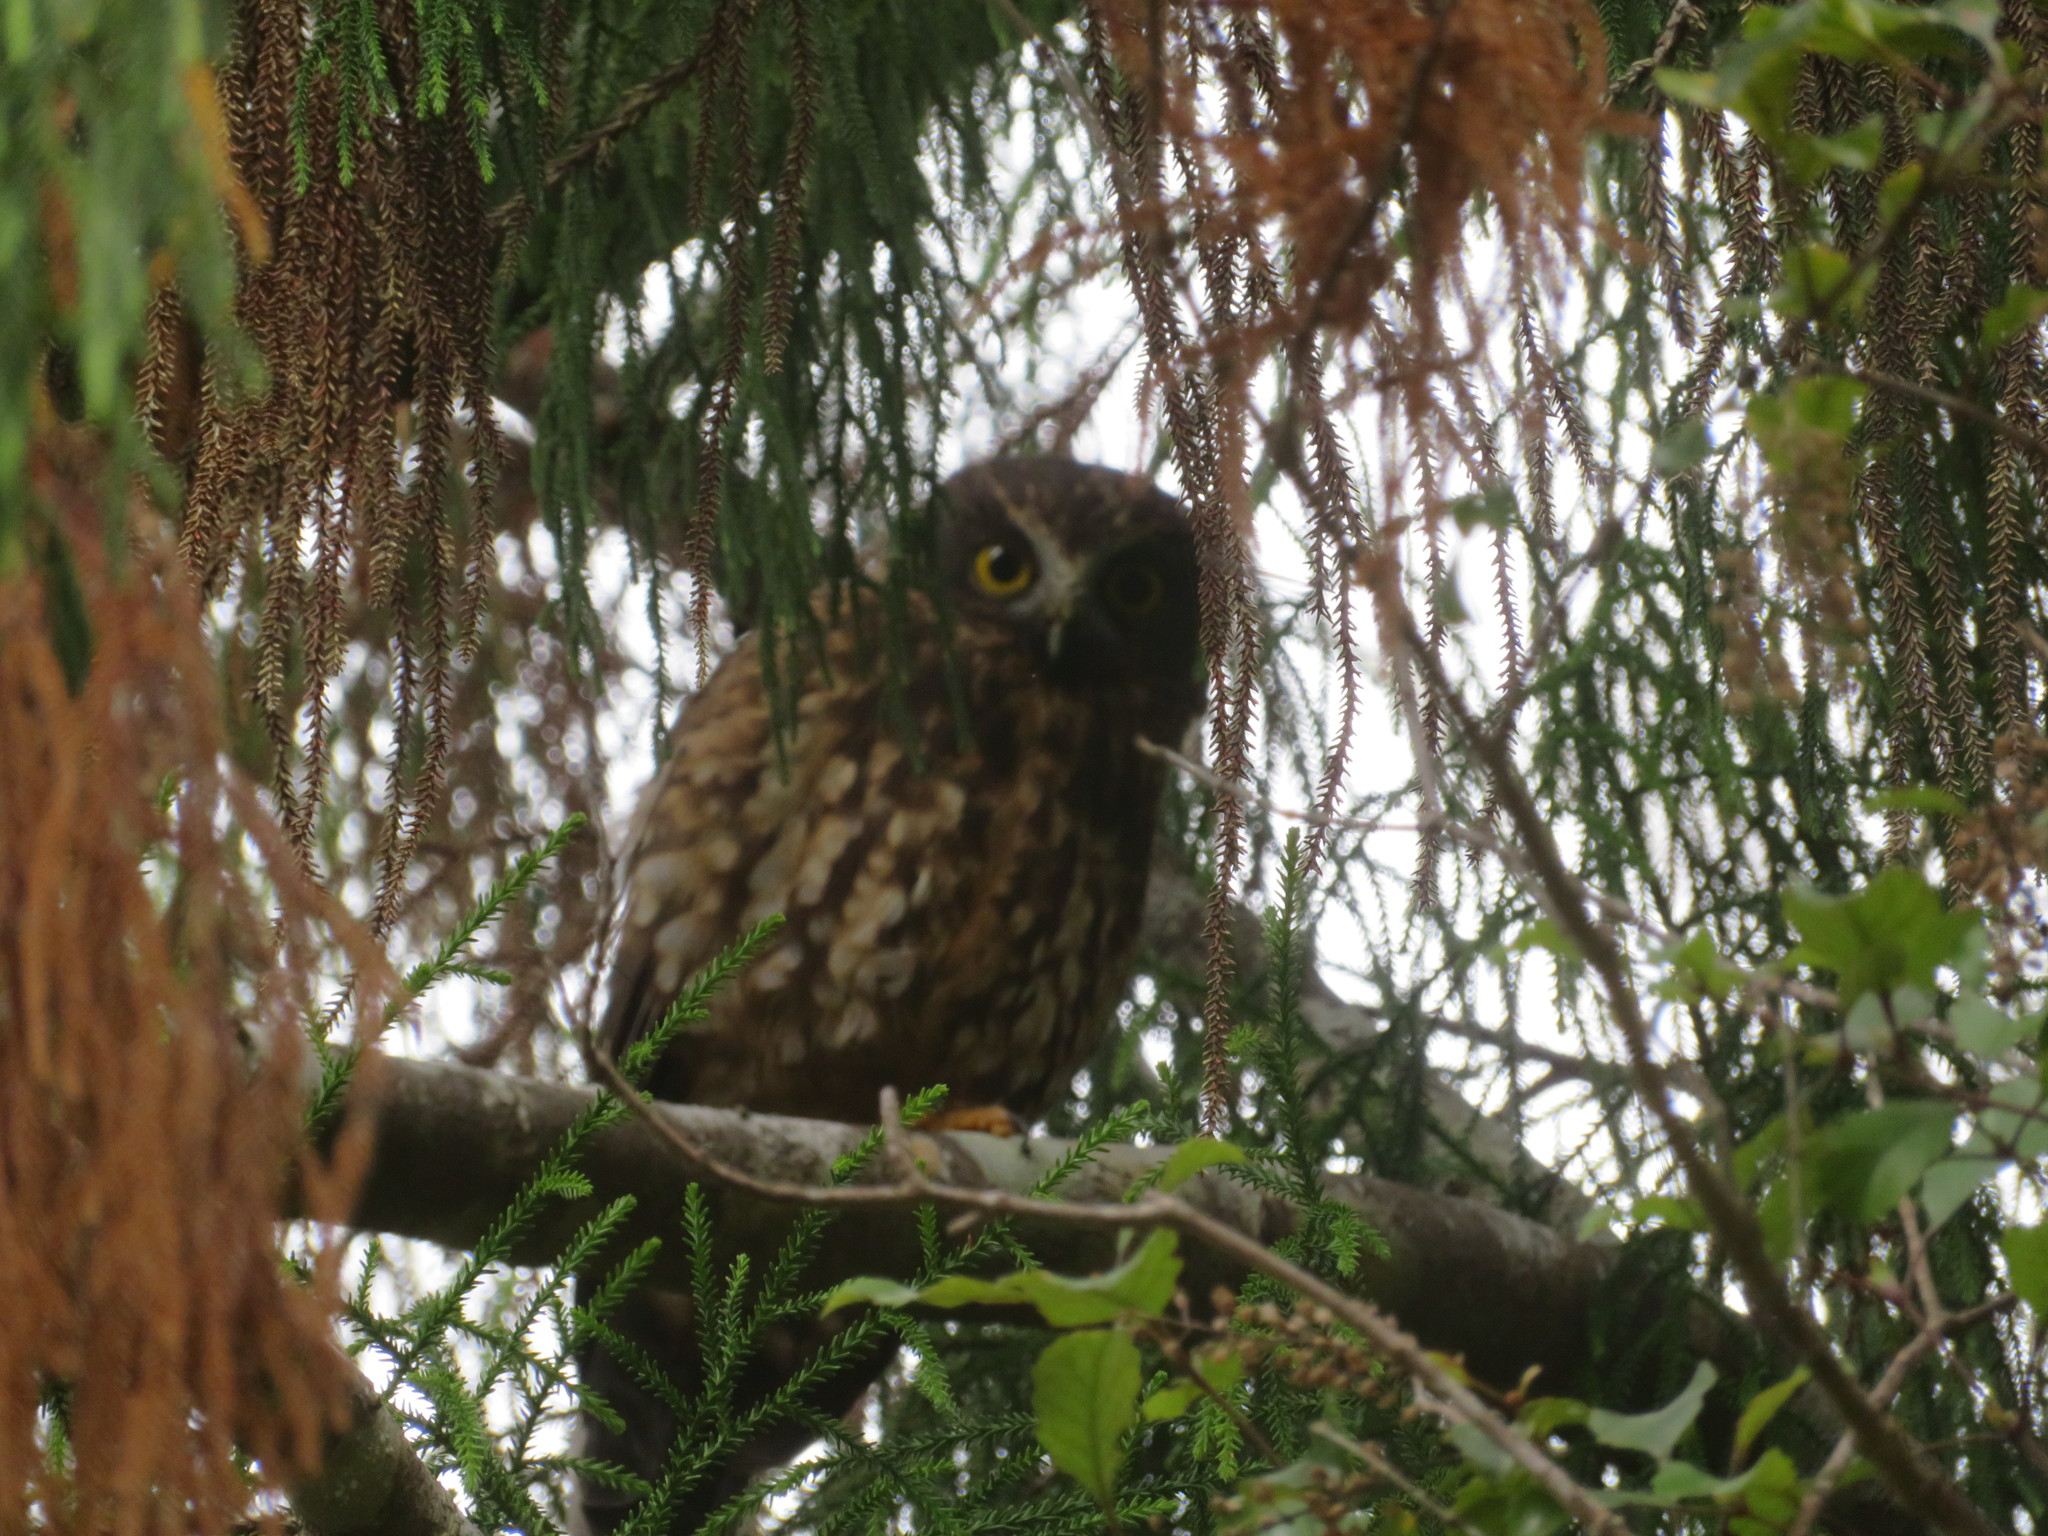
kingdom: Animalia
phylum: Chordata
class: Aves
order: Strigiformes
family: Strigidae
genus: Ninox
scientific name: Ninox novaeseelandiae
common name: Morepork
